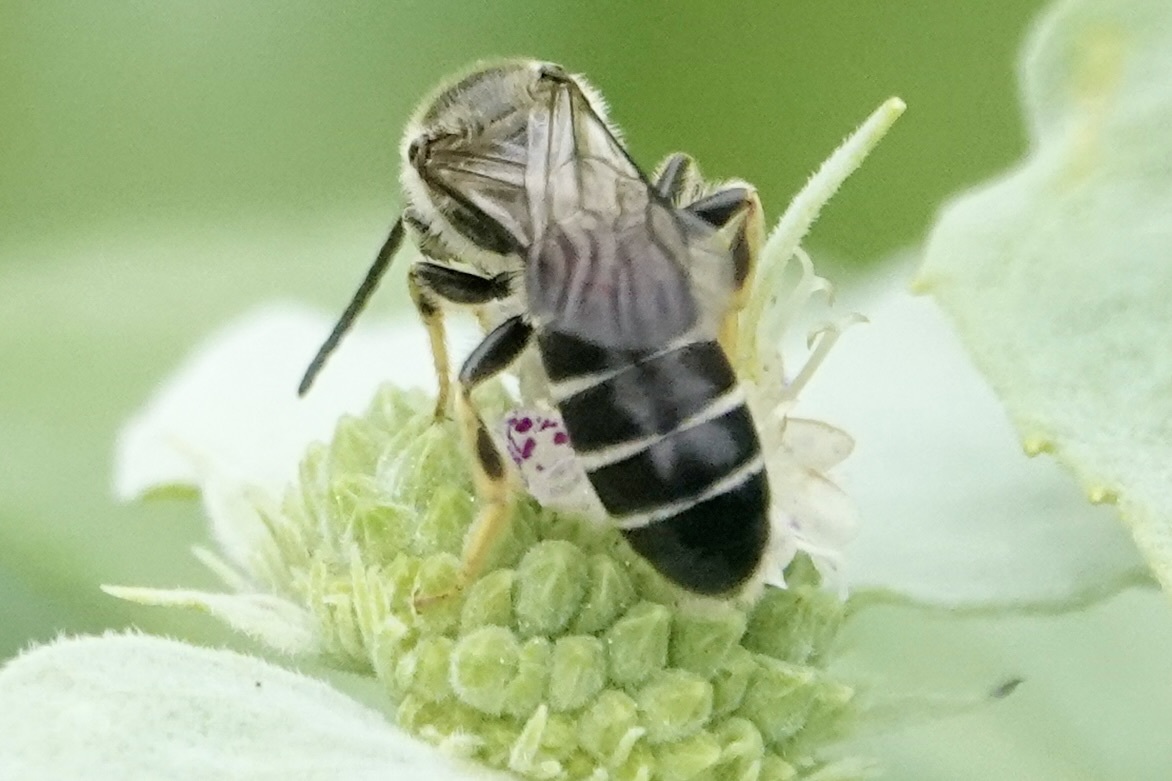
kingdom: Animalia
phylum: Arthropoda
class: Insecta
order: Hymenoptera
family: Halictidae
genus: Halictus
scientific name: Halictus rubicundus
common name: Orange-legged furrow bee
